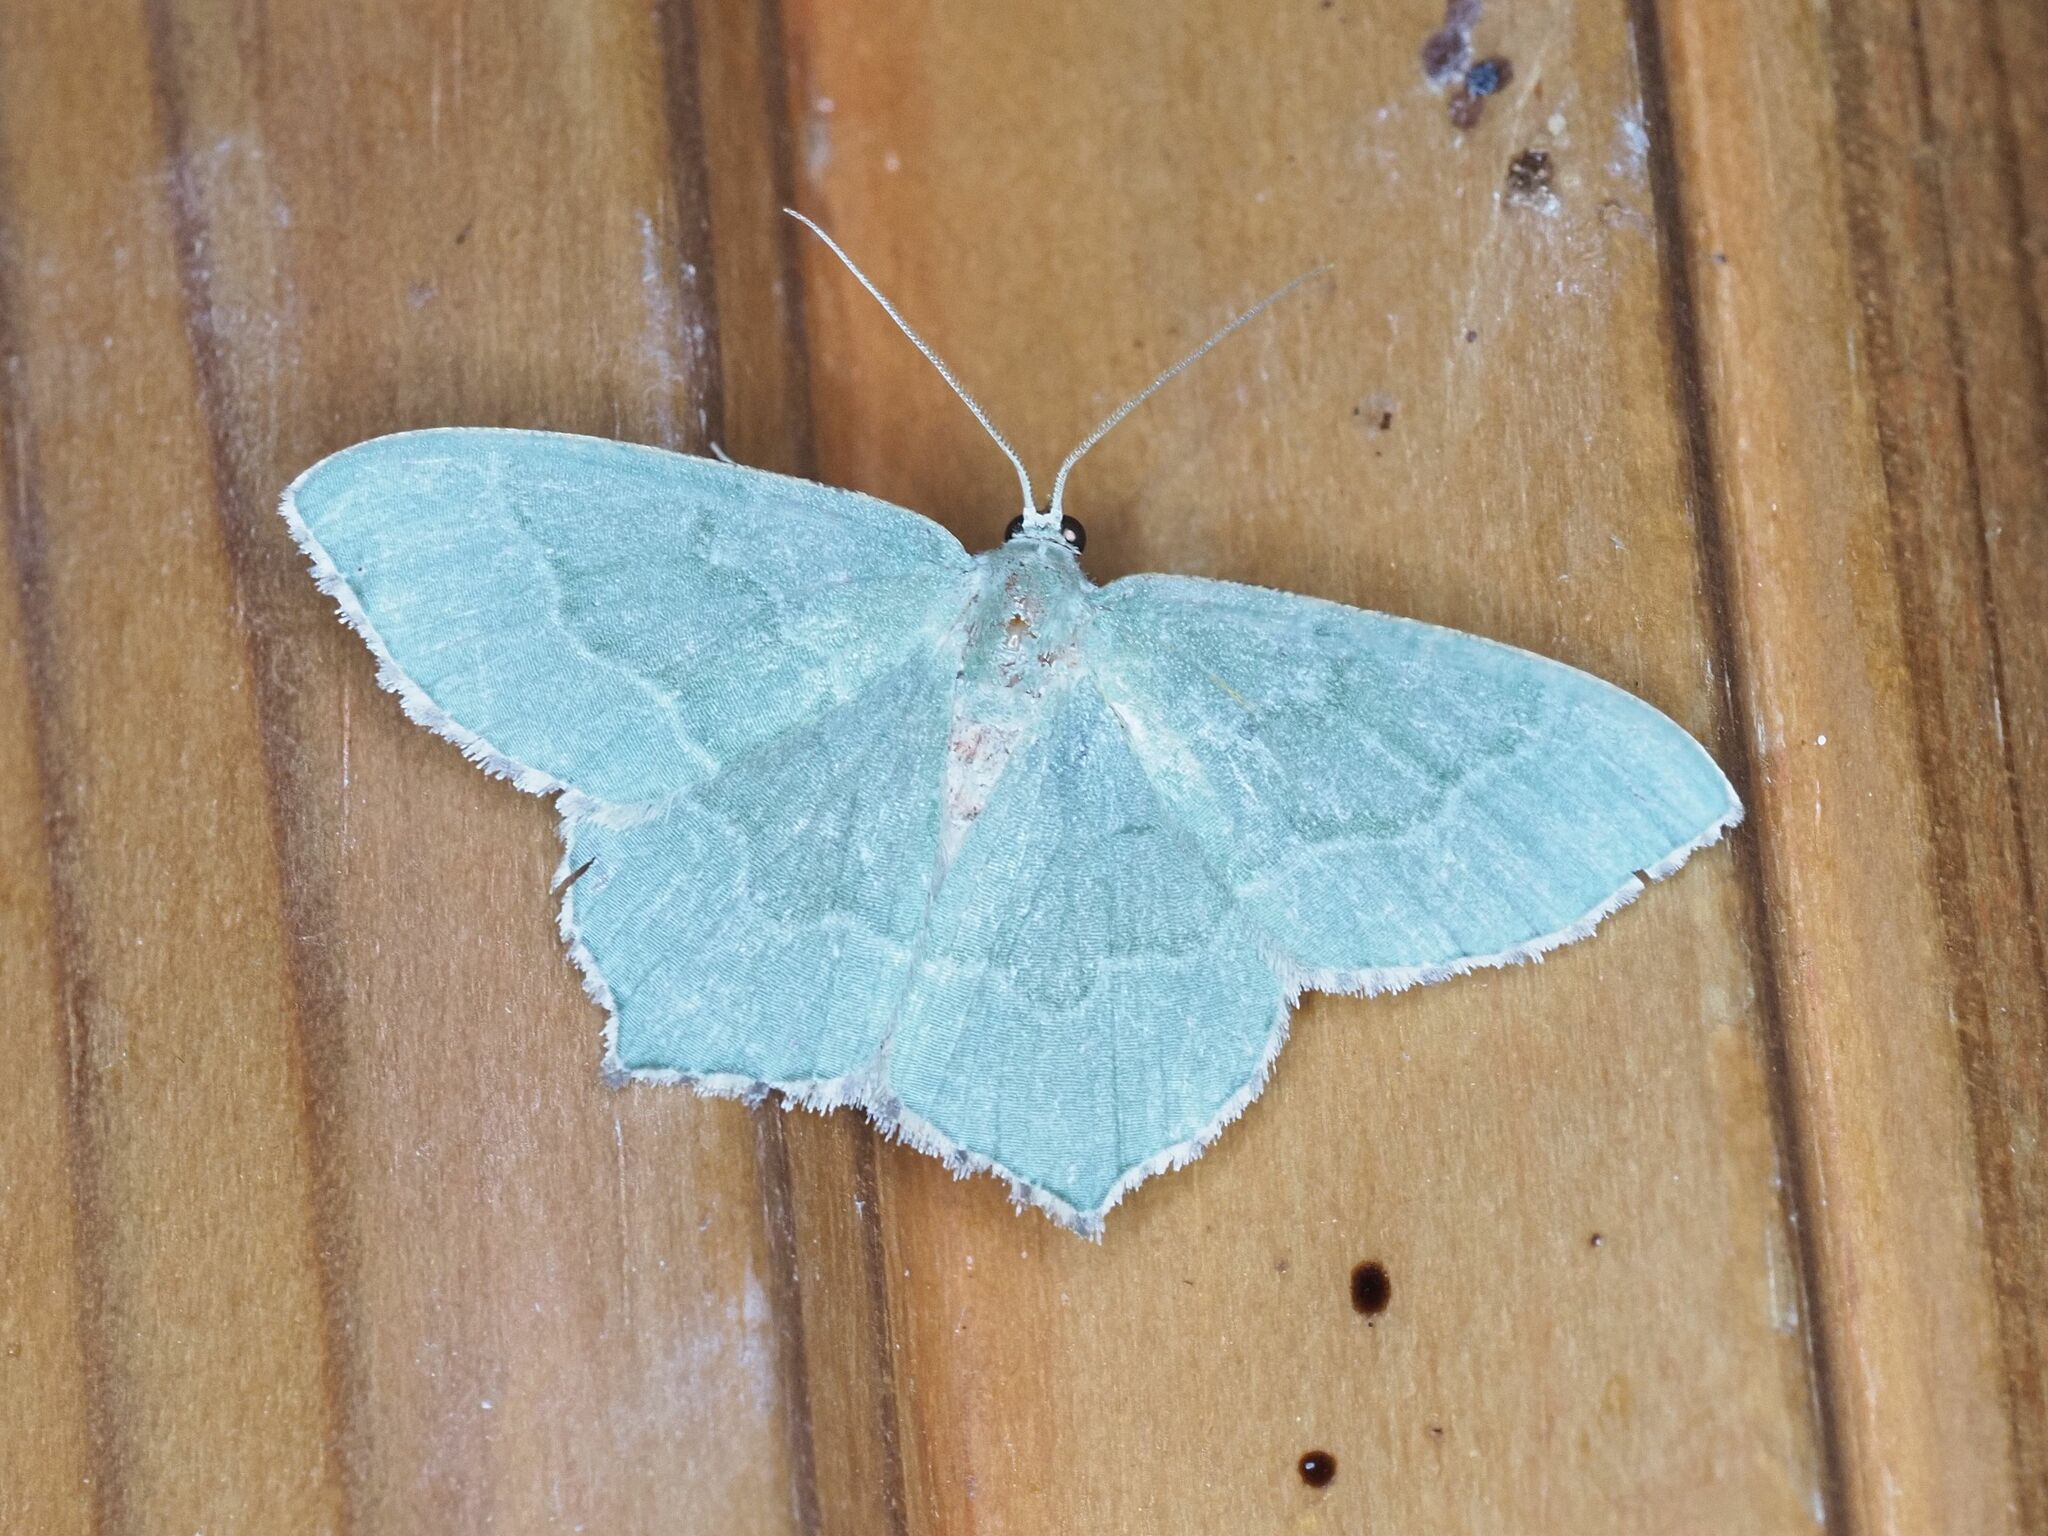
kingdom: Animalia
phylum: Arthropoda
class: Insecta
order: Lepidoptera
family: Geometridae
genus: Hemithea
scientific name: Hemithea aestivaria
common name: Common emerald
